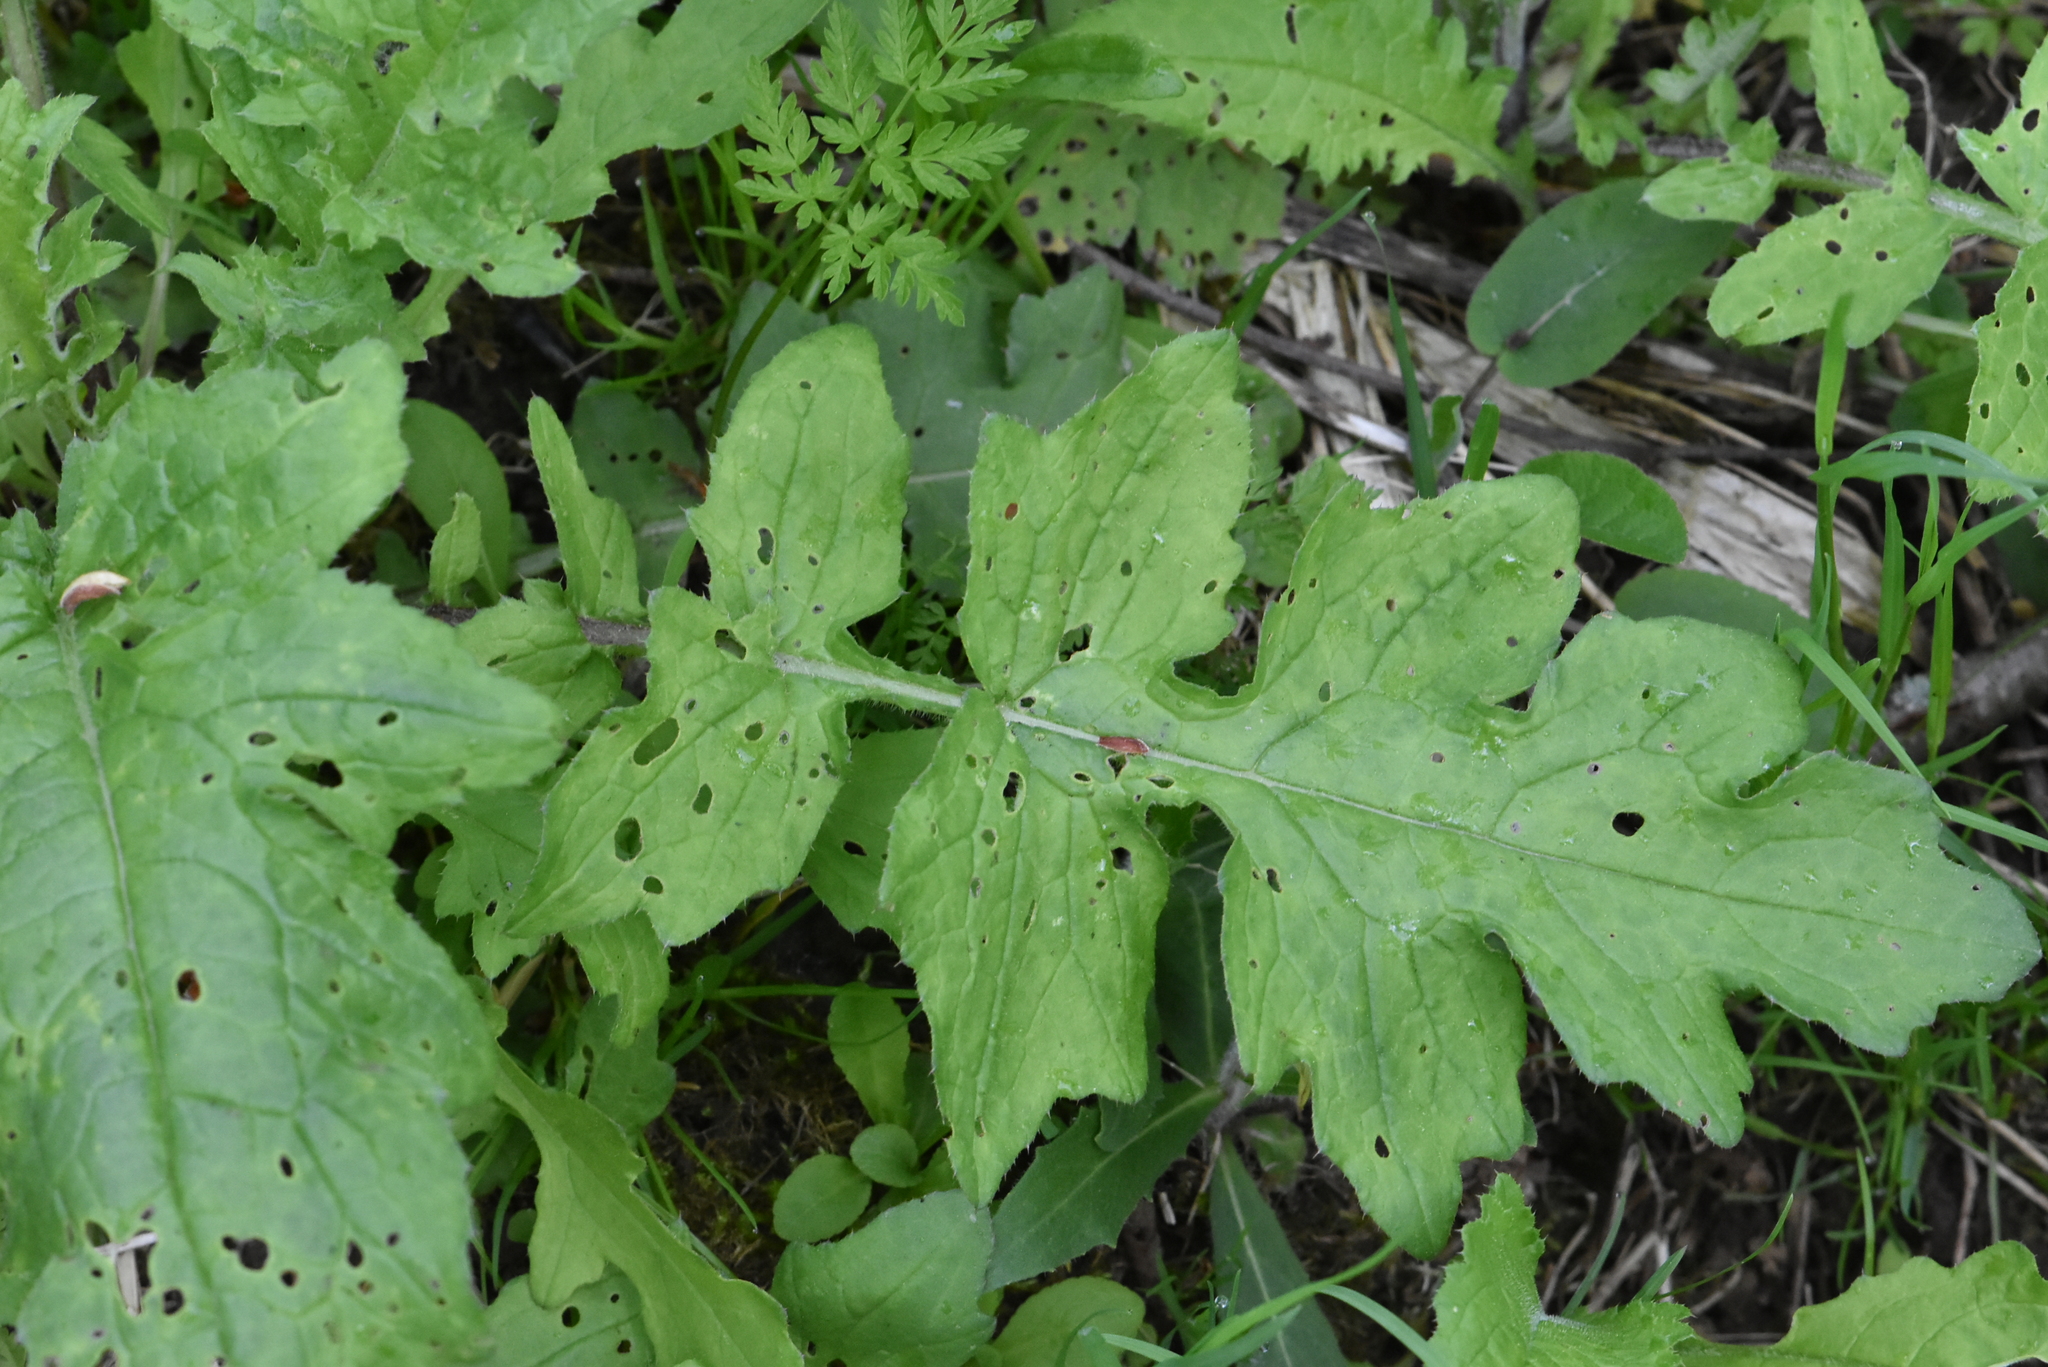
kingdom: Plantae
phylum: Tracheophyta
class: Magnoliopsida
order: Asterales
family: Asteraceae
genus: Carduus
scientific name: Carduus crispus
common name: Welted thistle
